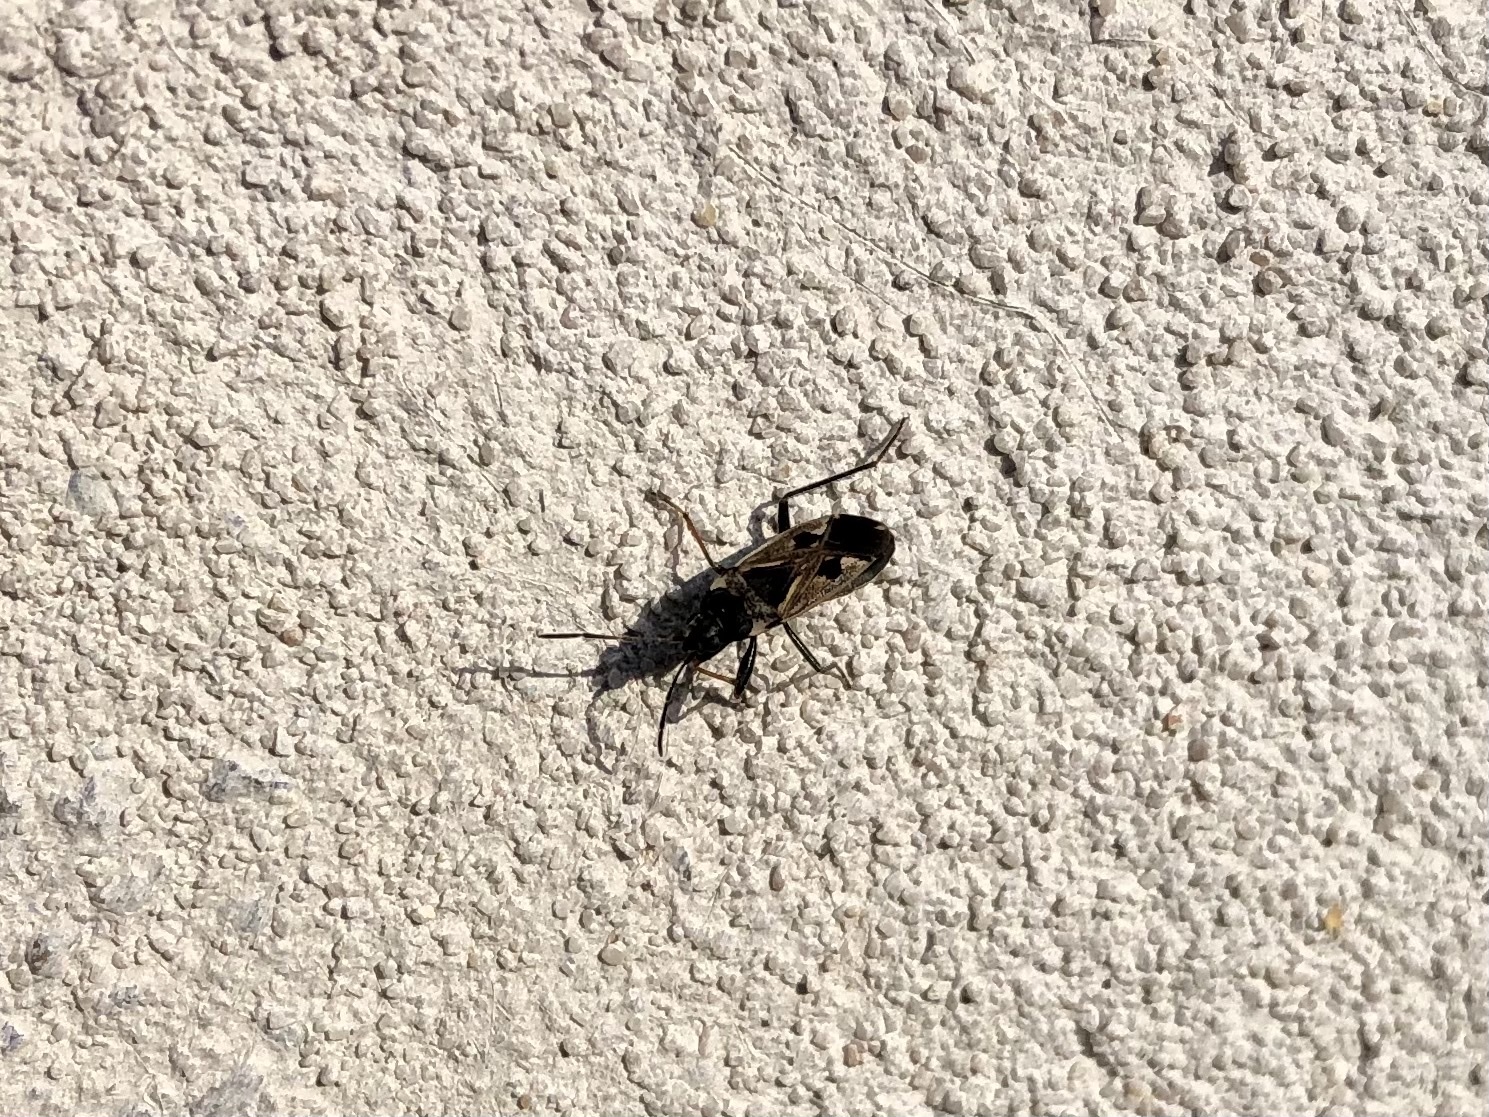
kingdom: Animalia
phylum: Arthropoda
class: Insecta
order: Hemiptera
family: Rhyparochromidae
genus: Rhyparochromus
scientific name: Rhyparochromus vulgaris
